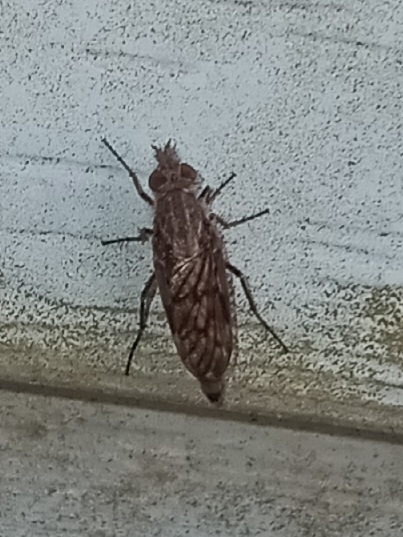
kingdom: Animalia
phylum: Arthropoda
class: Insecta
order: Diptera
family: Therevidae
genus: Tabuda
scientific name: Tabuda varia
